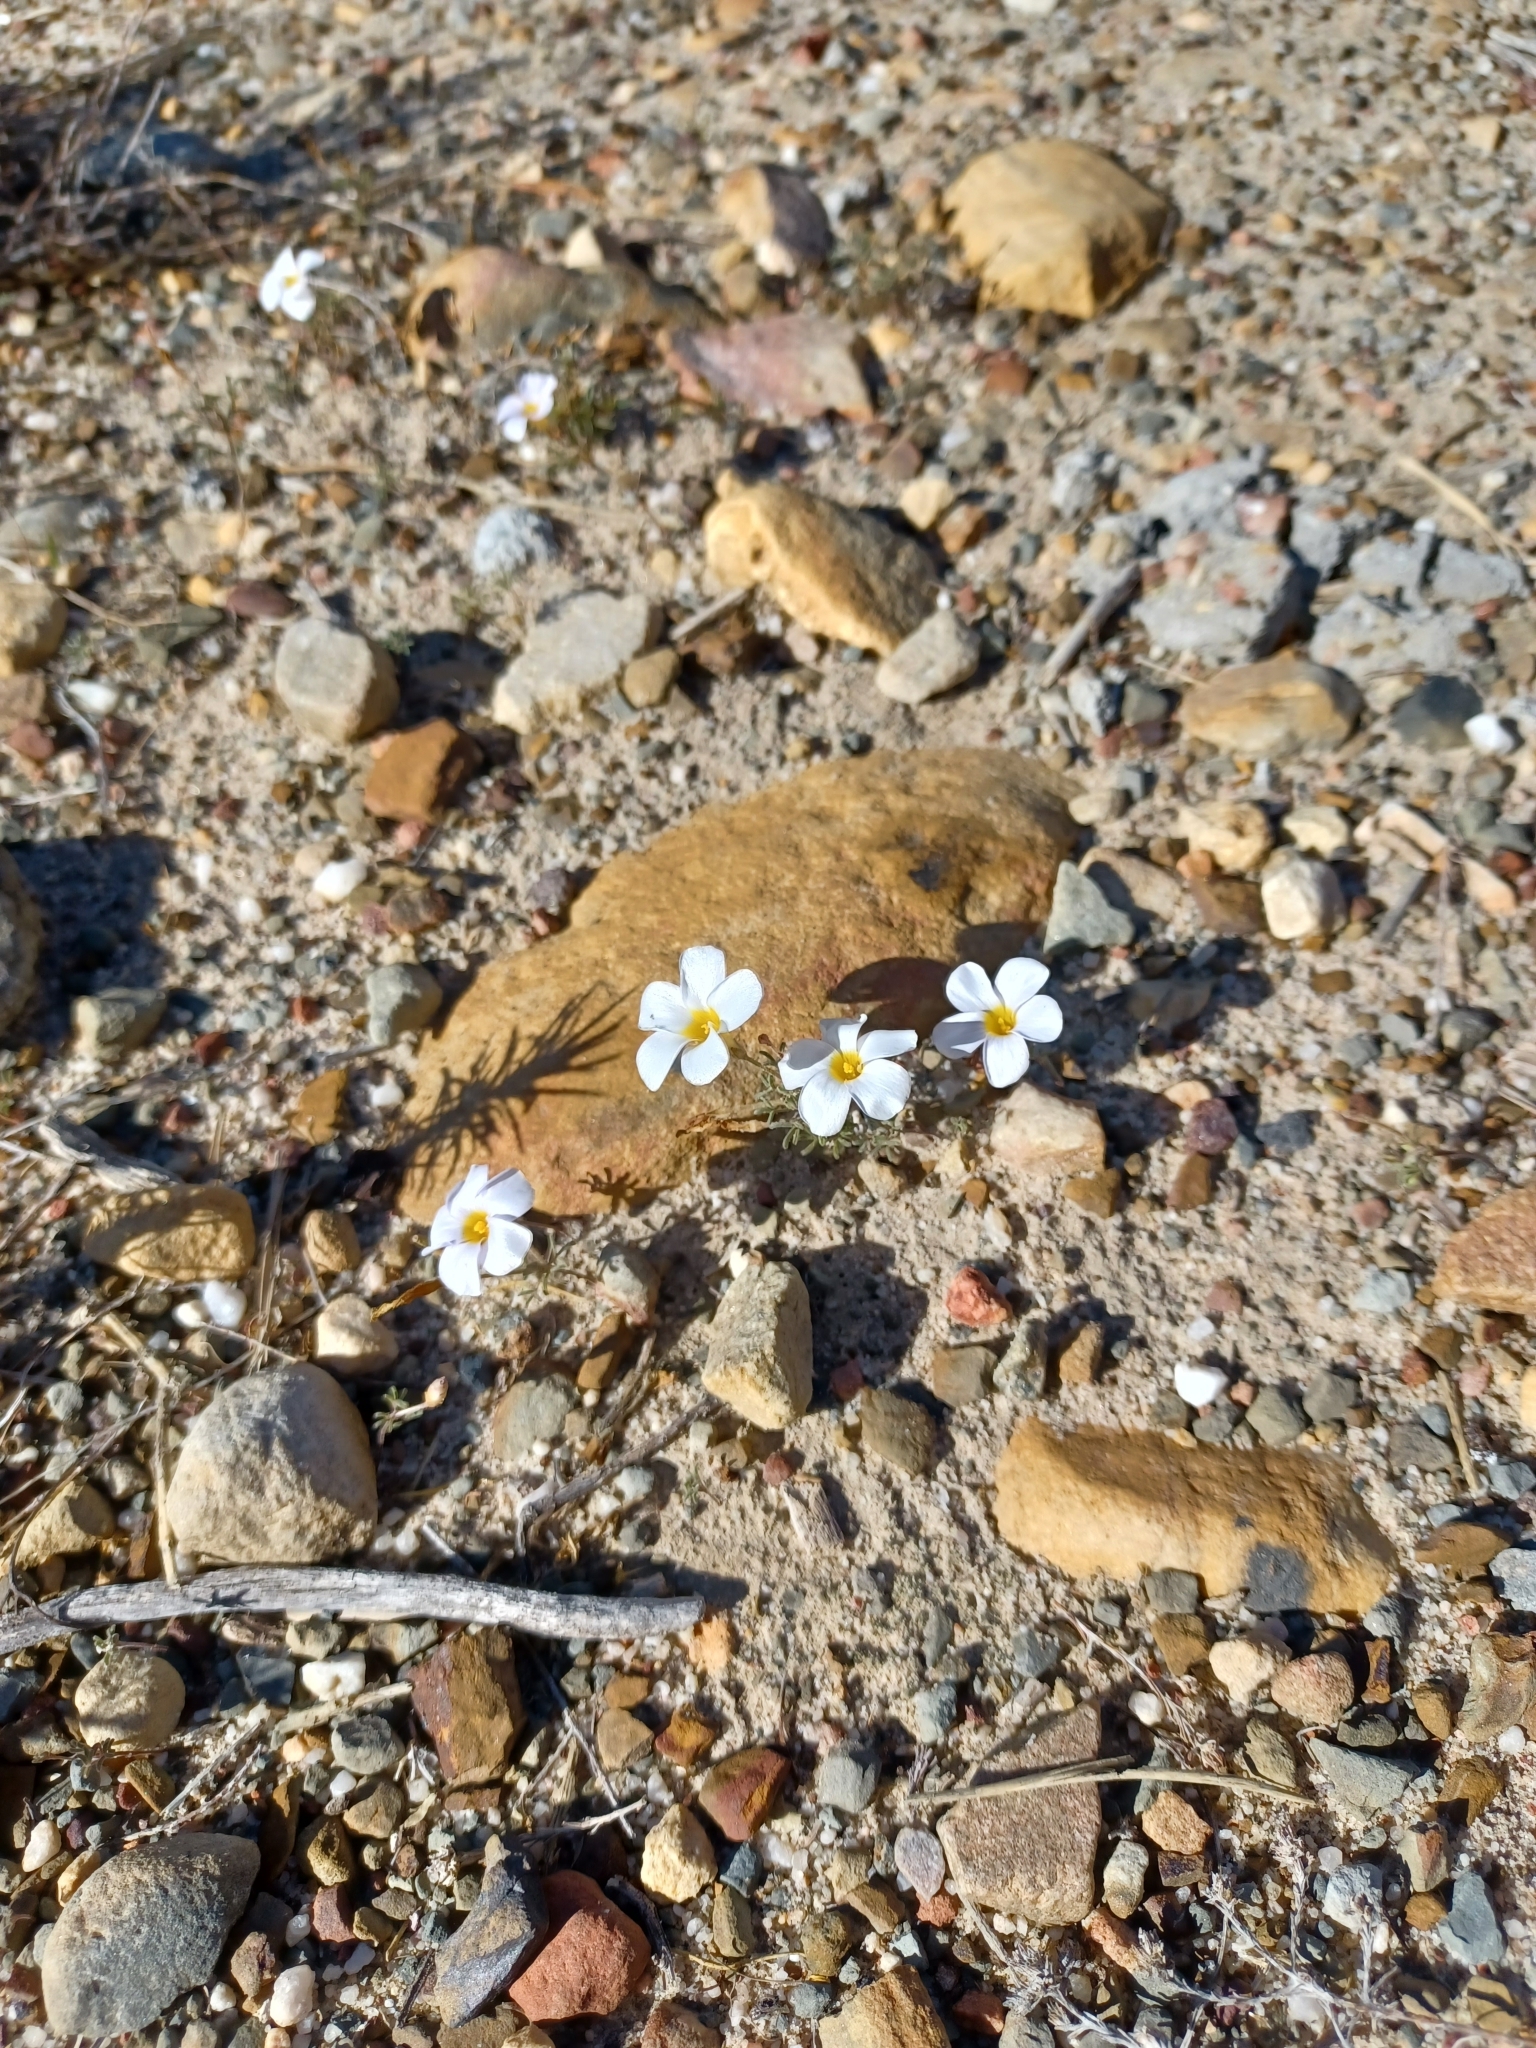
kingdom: Plantae
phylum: Tracheophyta
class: Magnoliopsida
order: Oxalidales
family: Oxalidaceae
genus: Oxalis
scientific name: Oxalis ciliaris
